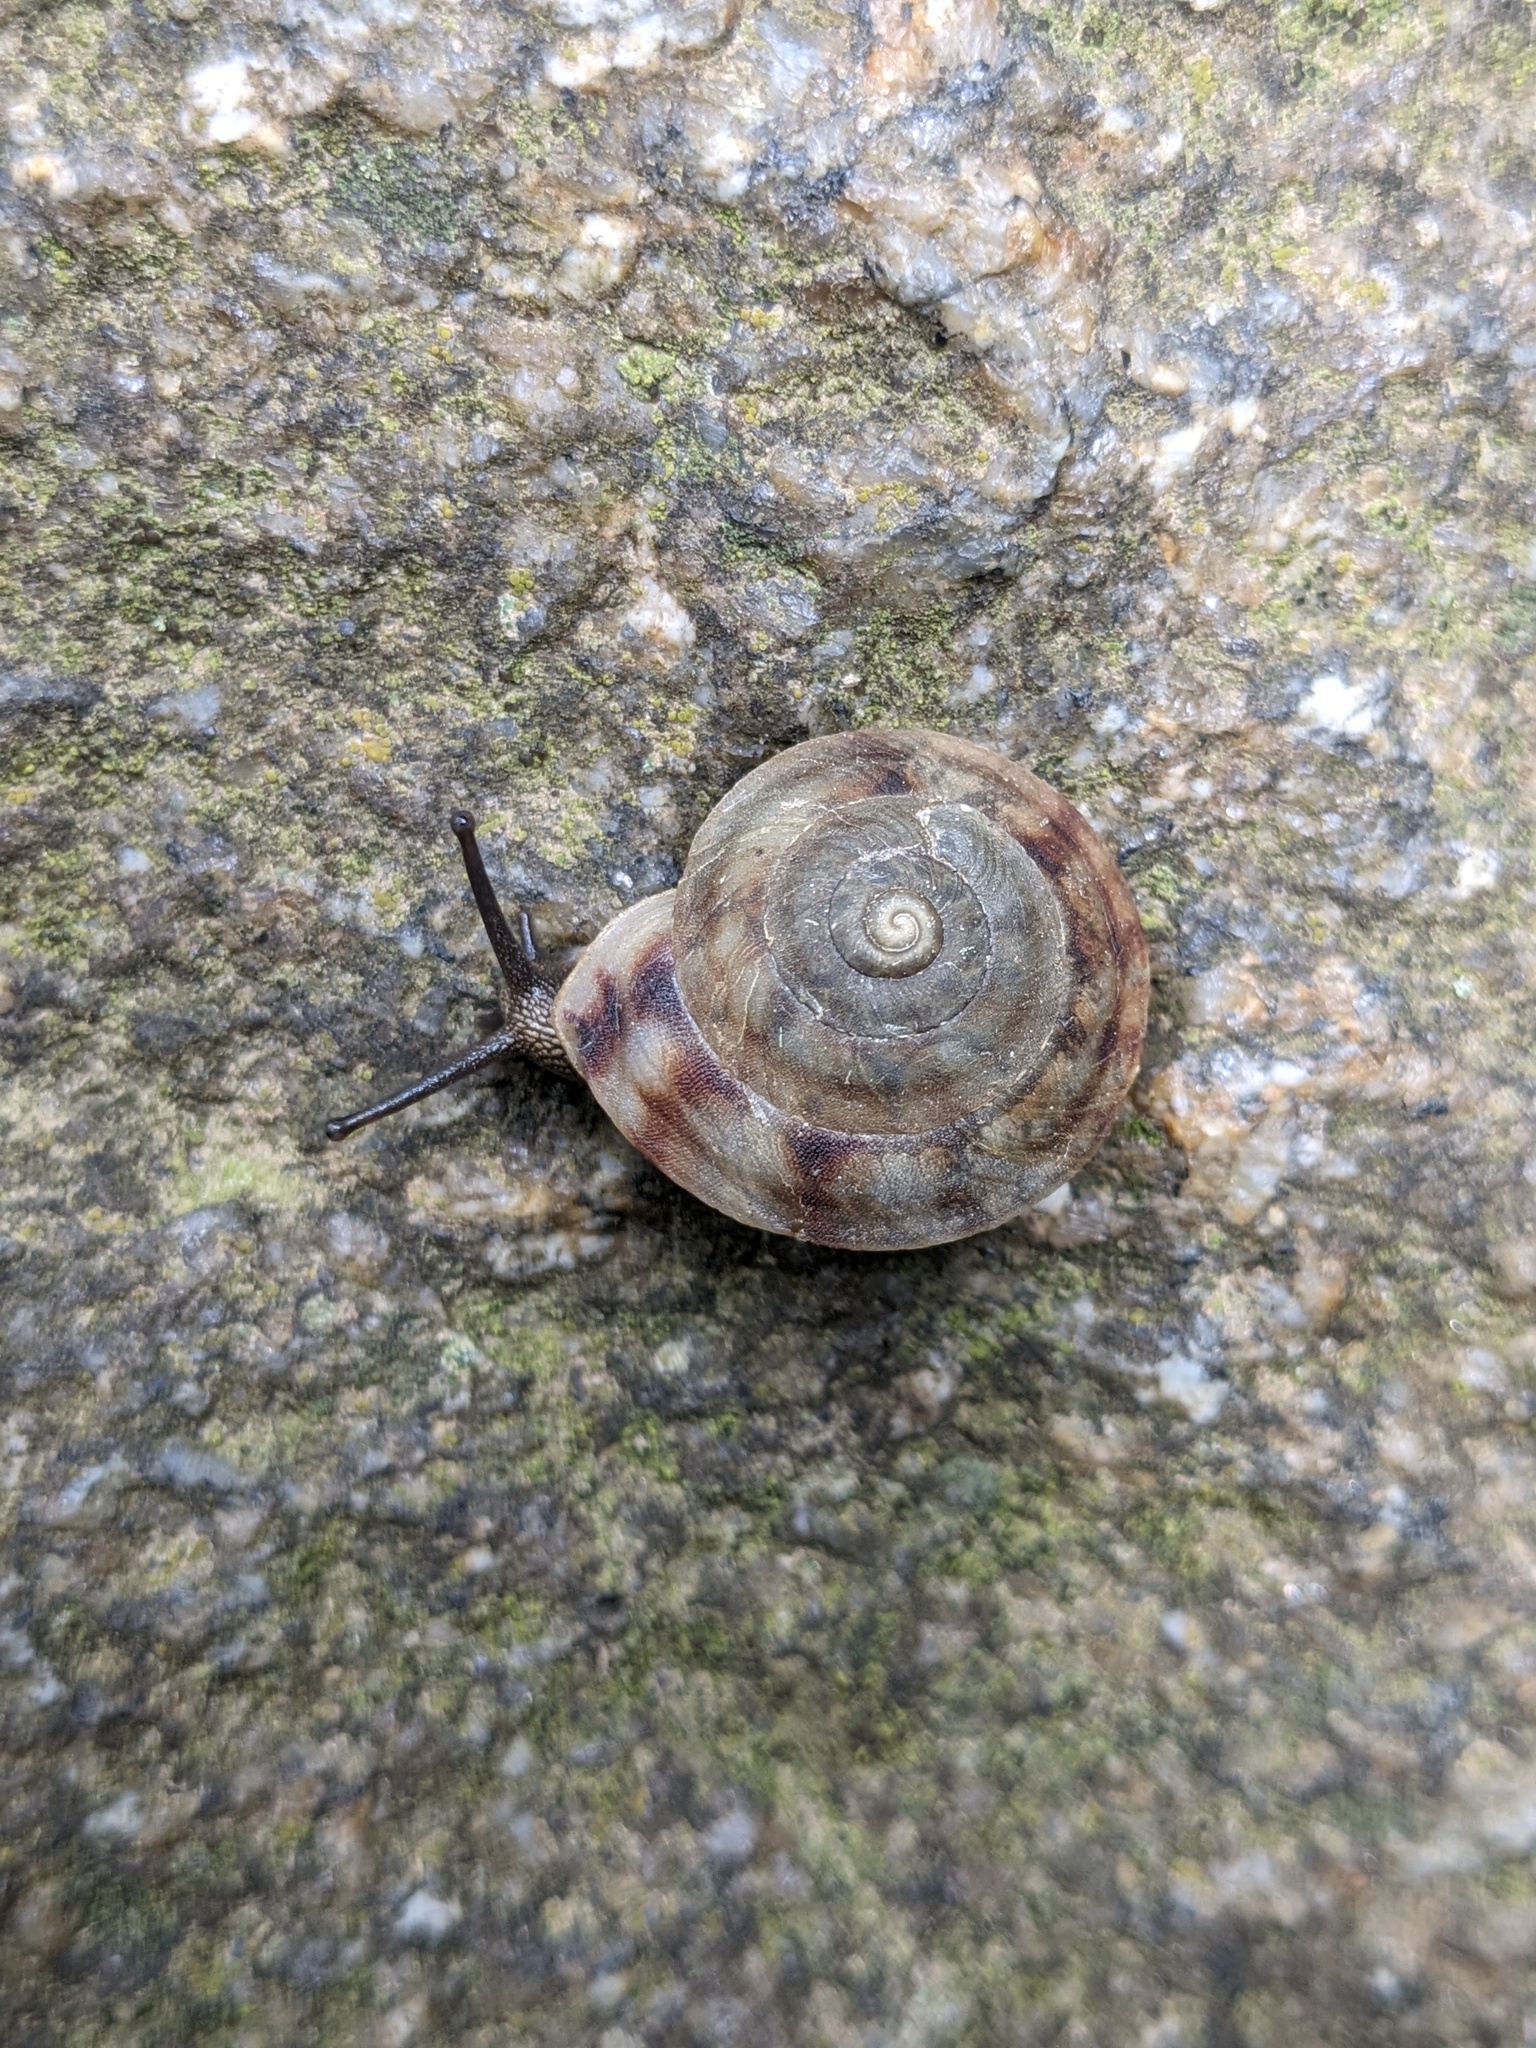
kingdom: Animalia
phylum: Mollusca
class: Gastropoda
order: Stylommatophora
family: Helicidae
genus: Helicigona
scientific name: Helicigona lapicida
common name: Lapidary snail
